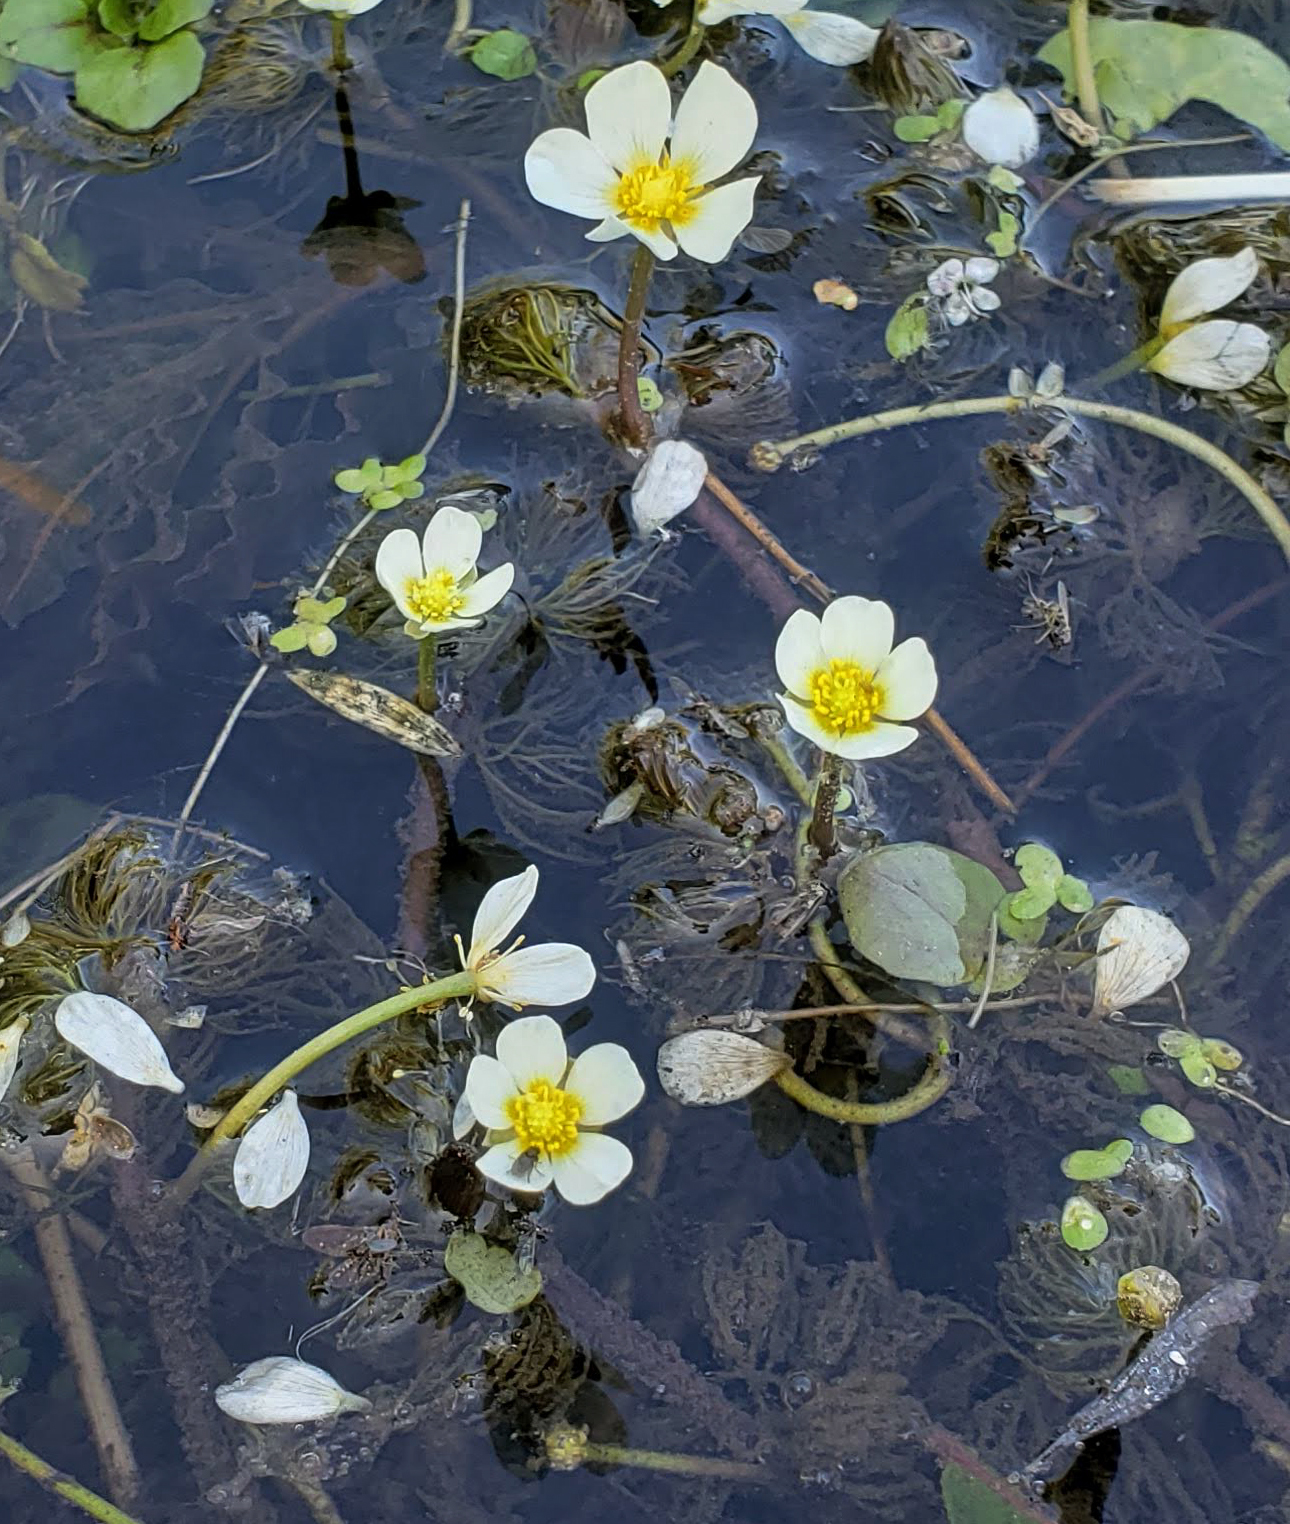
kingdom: Plantae
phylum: Tracheophyta
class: Magnoliopsida
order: Ranunculales
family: Ranunculaceae
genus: Ranunculus
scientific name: Ranunculus aquatilis
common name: Common water-crowfoot
